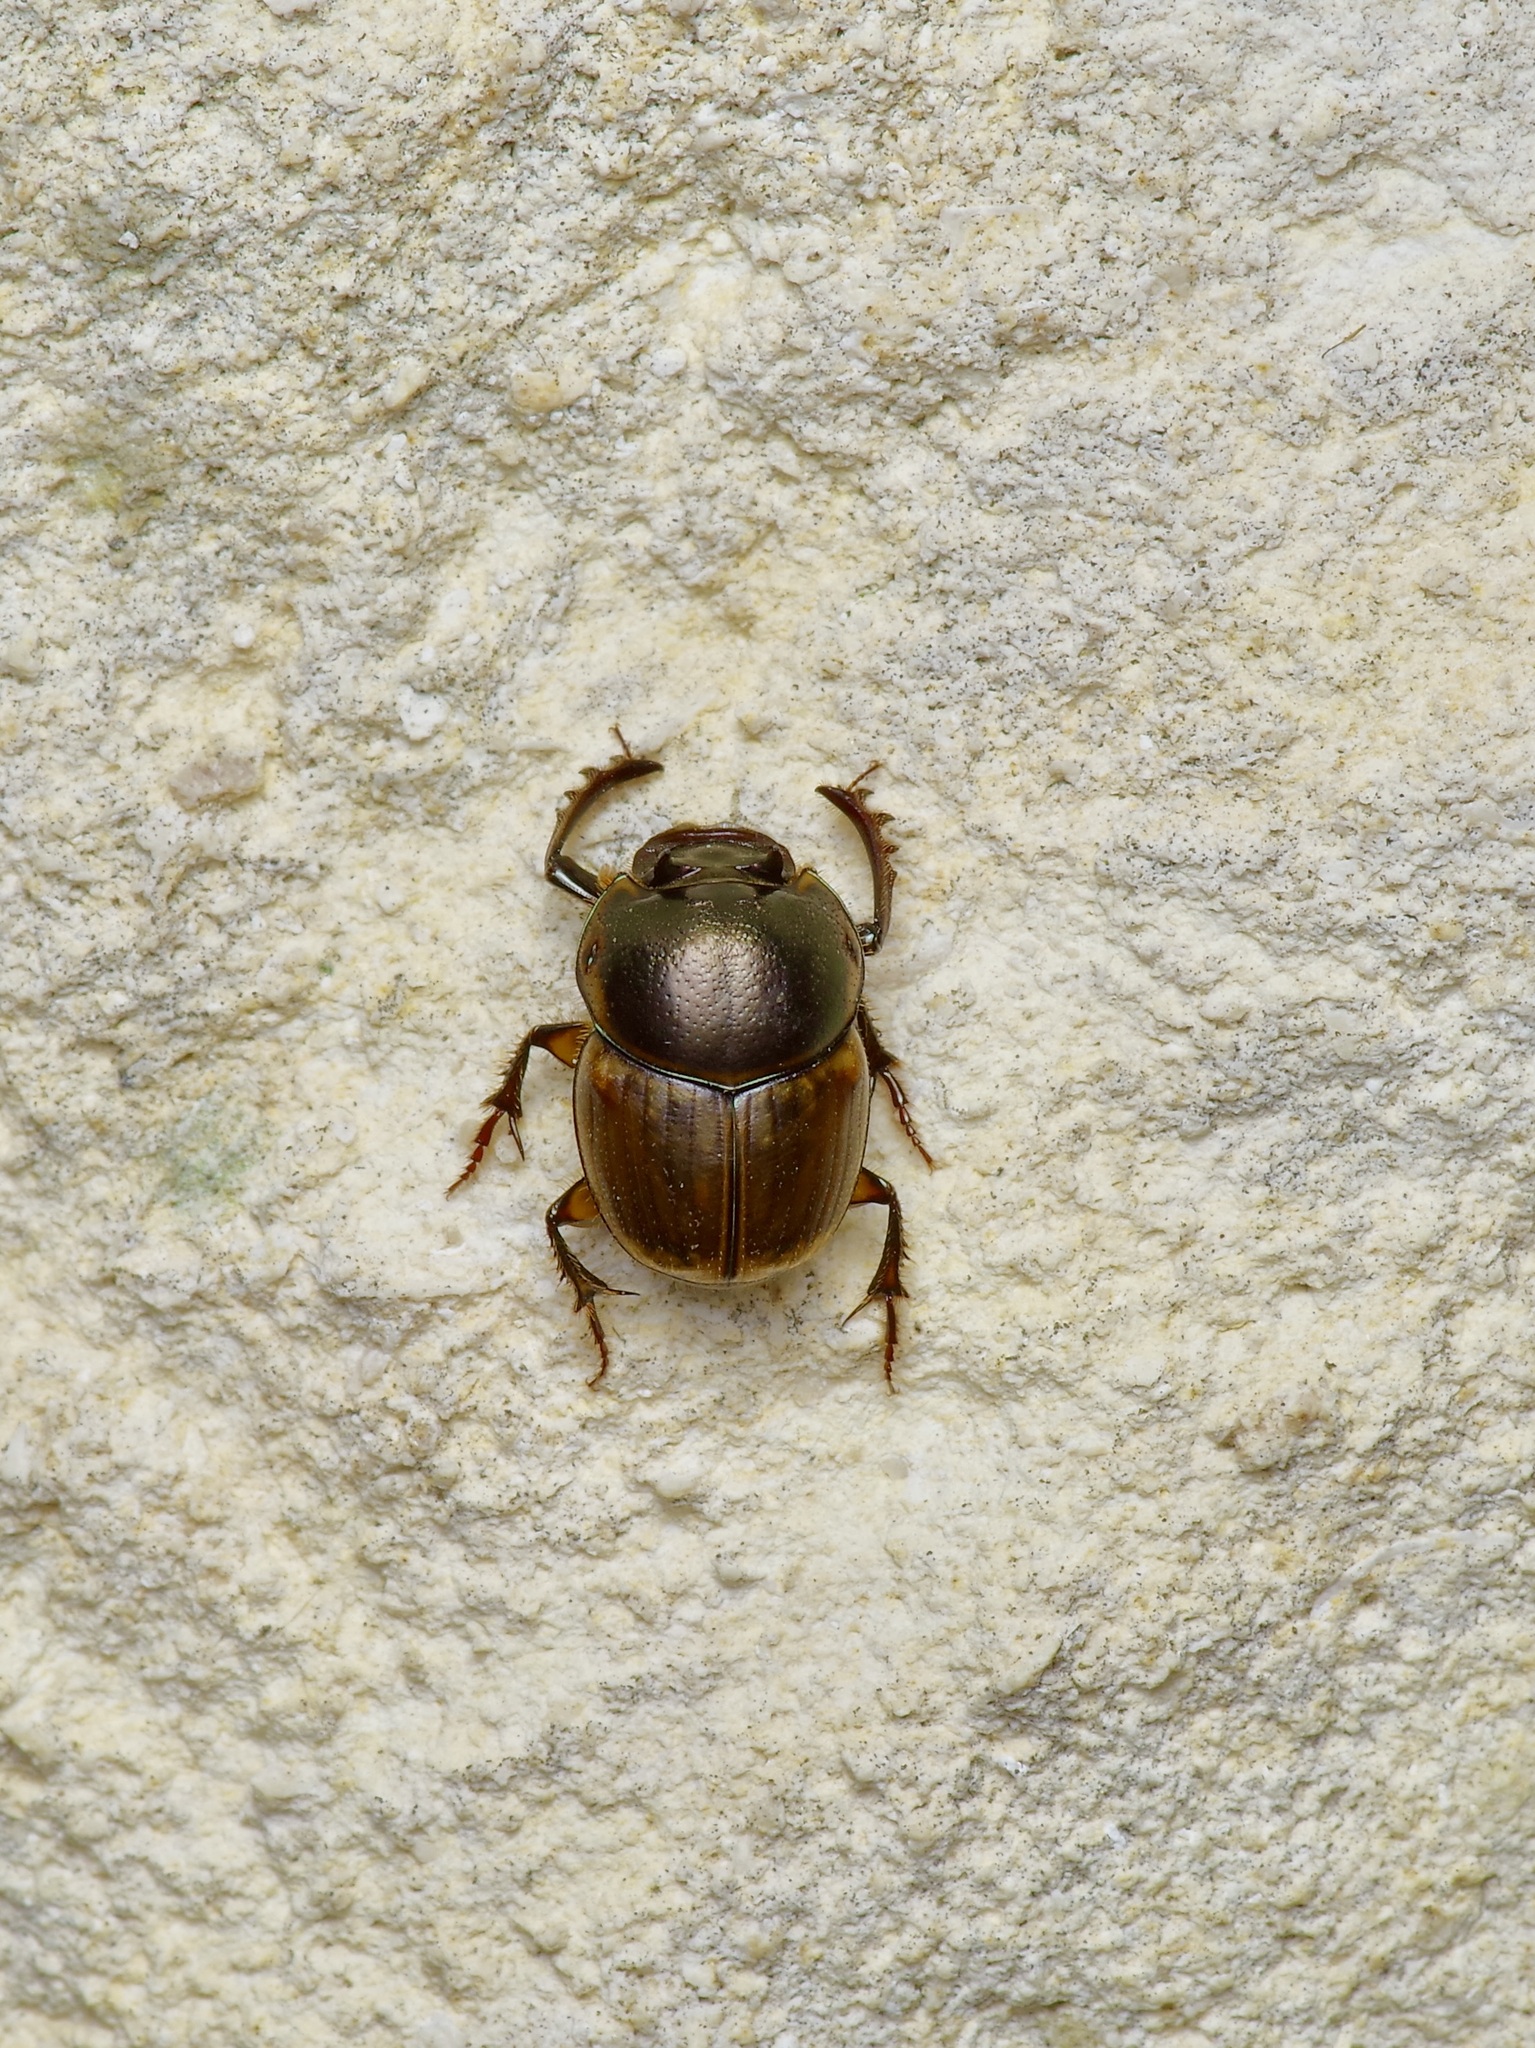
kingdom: Animalia
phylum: Arthropoda
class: Insecta
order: Coleoptera
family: Scarabaeidae
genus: Digitonthophagus
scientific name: Digitonthophagus gazella
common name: Brown dung beetle
